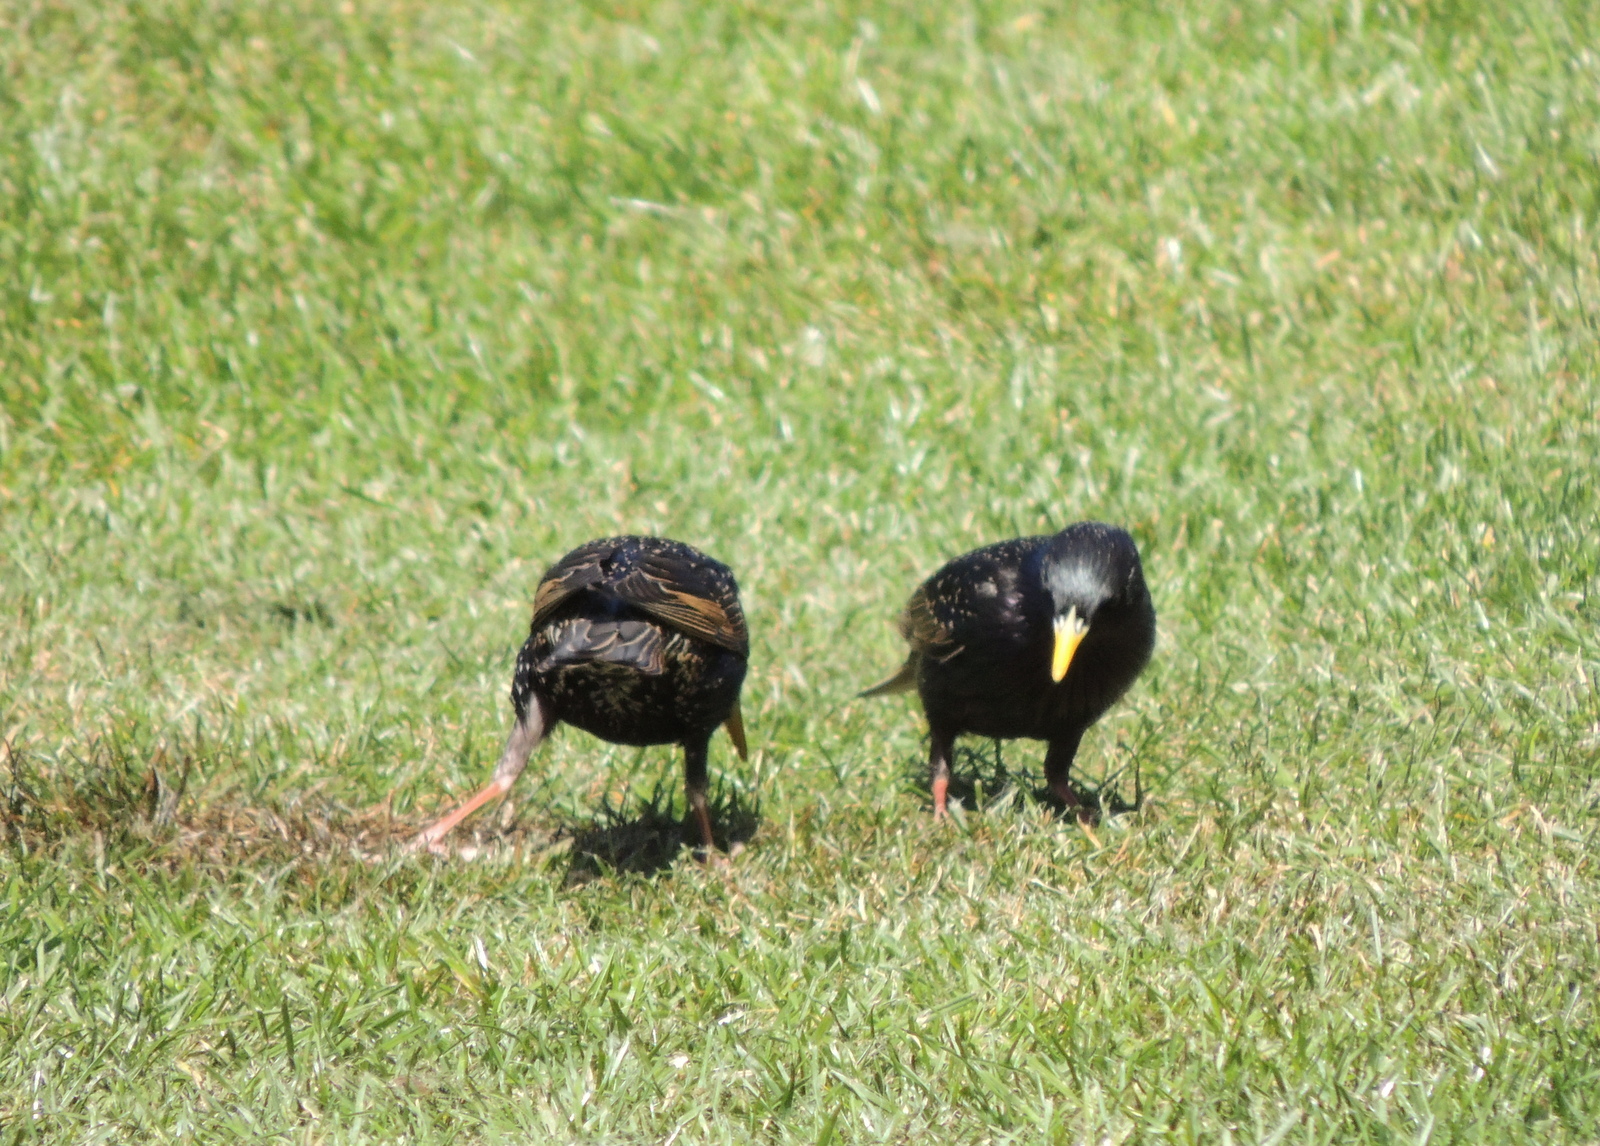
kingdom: Animalia
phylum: Chordata
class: Aves
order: Passeriformes
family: Sturnidae
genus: Sturnus
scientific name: Sturnus vulgaris
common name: Common starling
